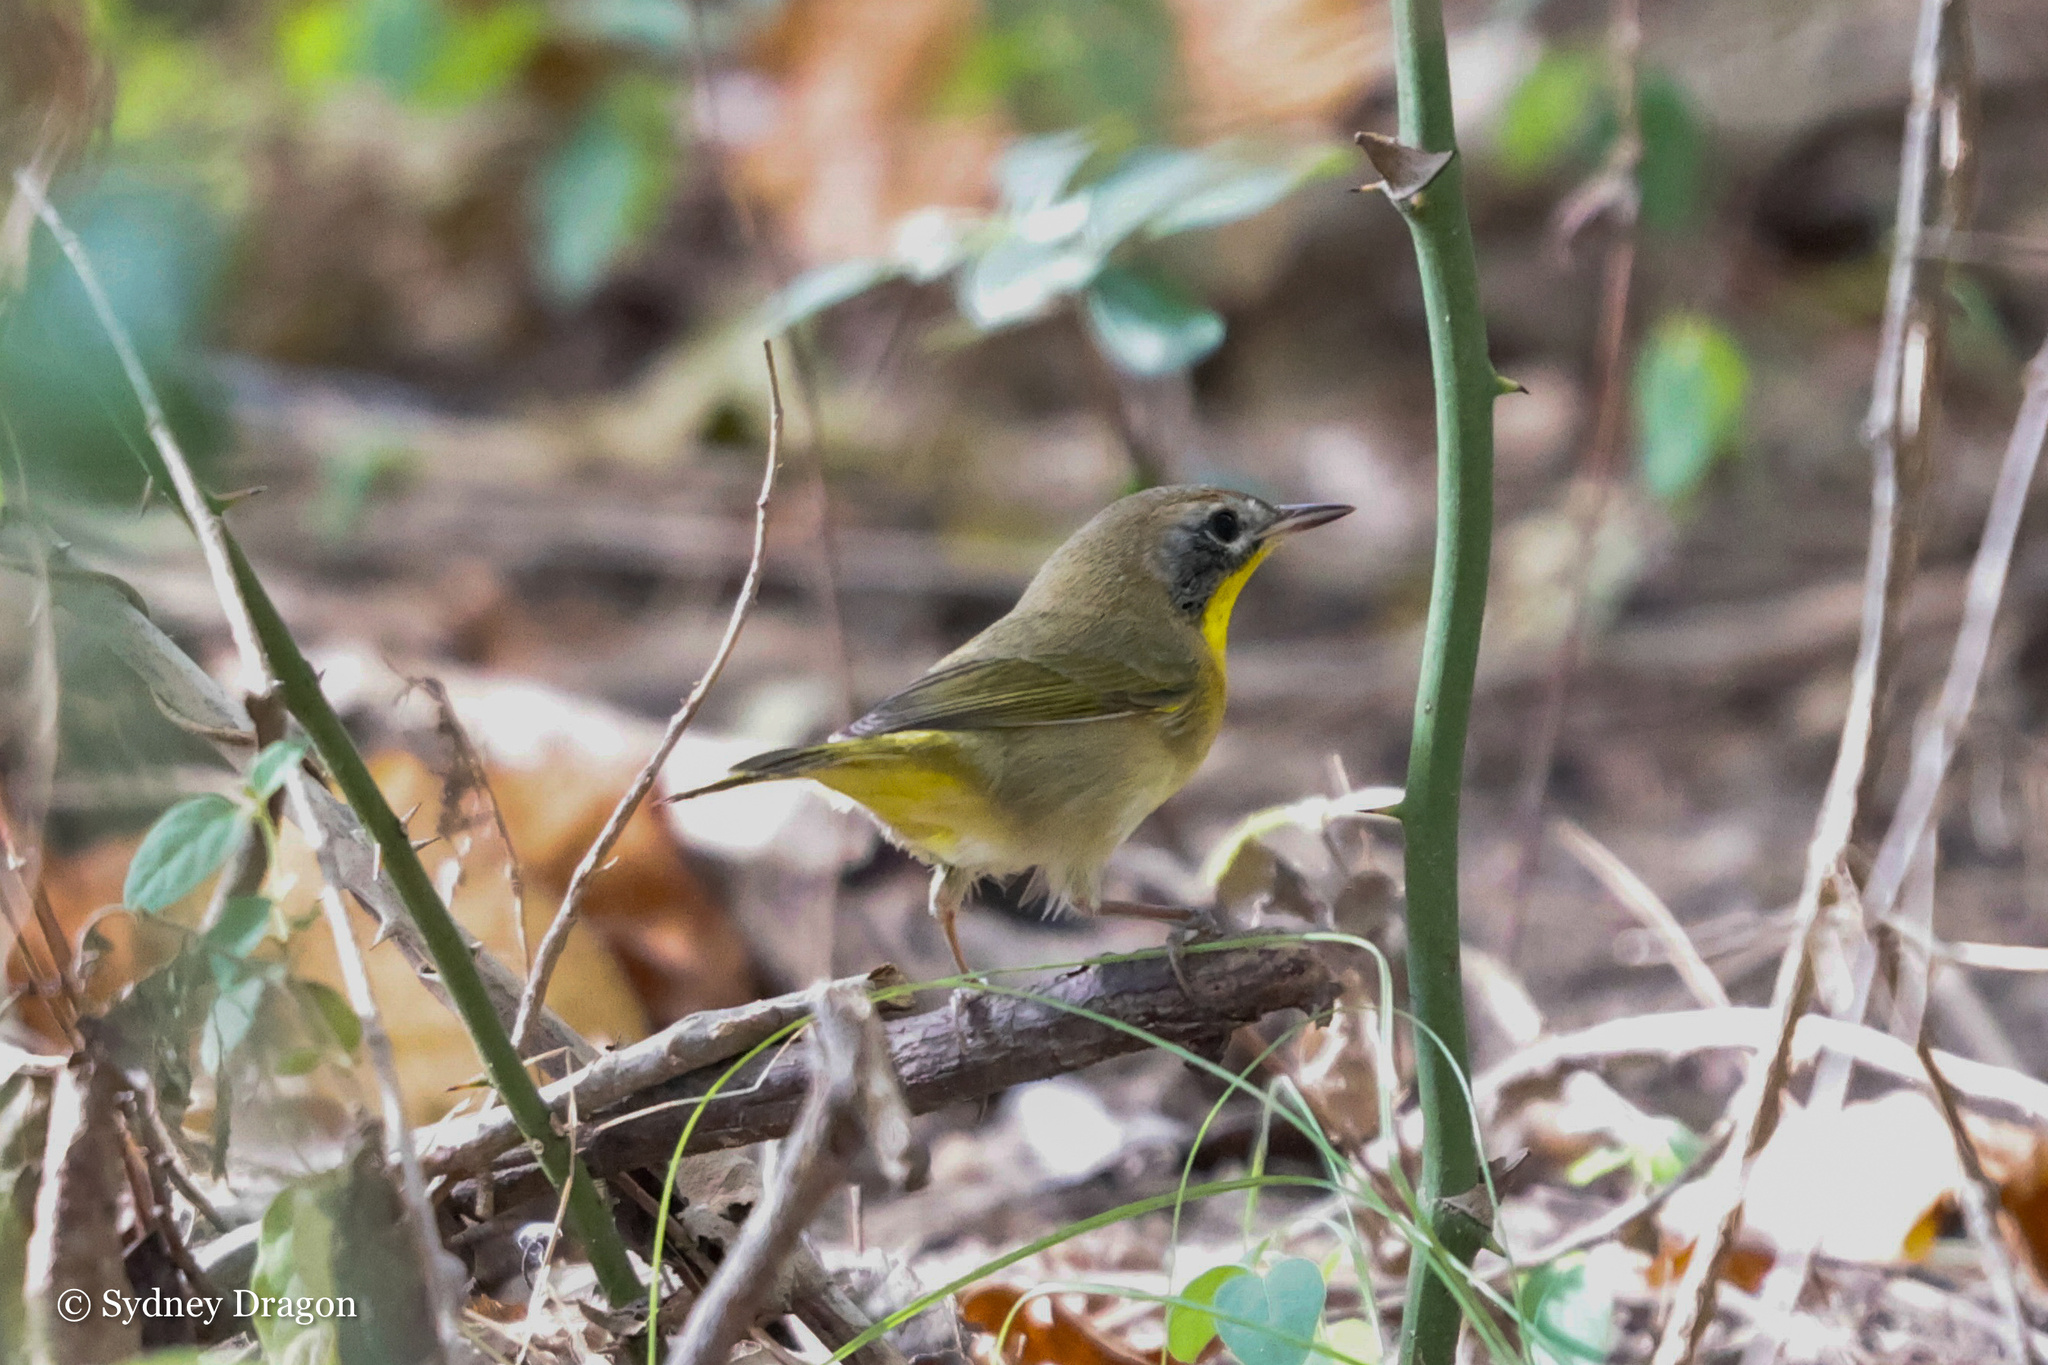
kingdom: Animalia
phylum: Chordata
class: Aves
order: Passeriformes
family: Parulidae
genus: Geothlypis
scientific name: Geothlypis trichas
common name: Common yellowthroat
